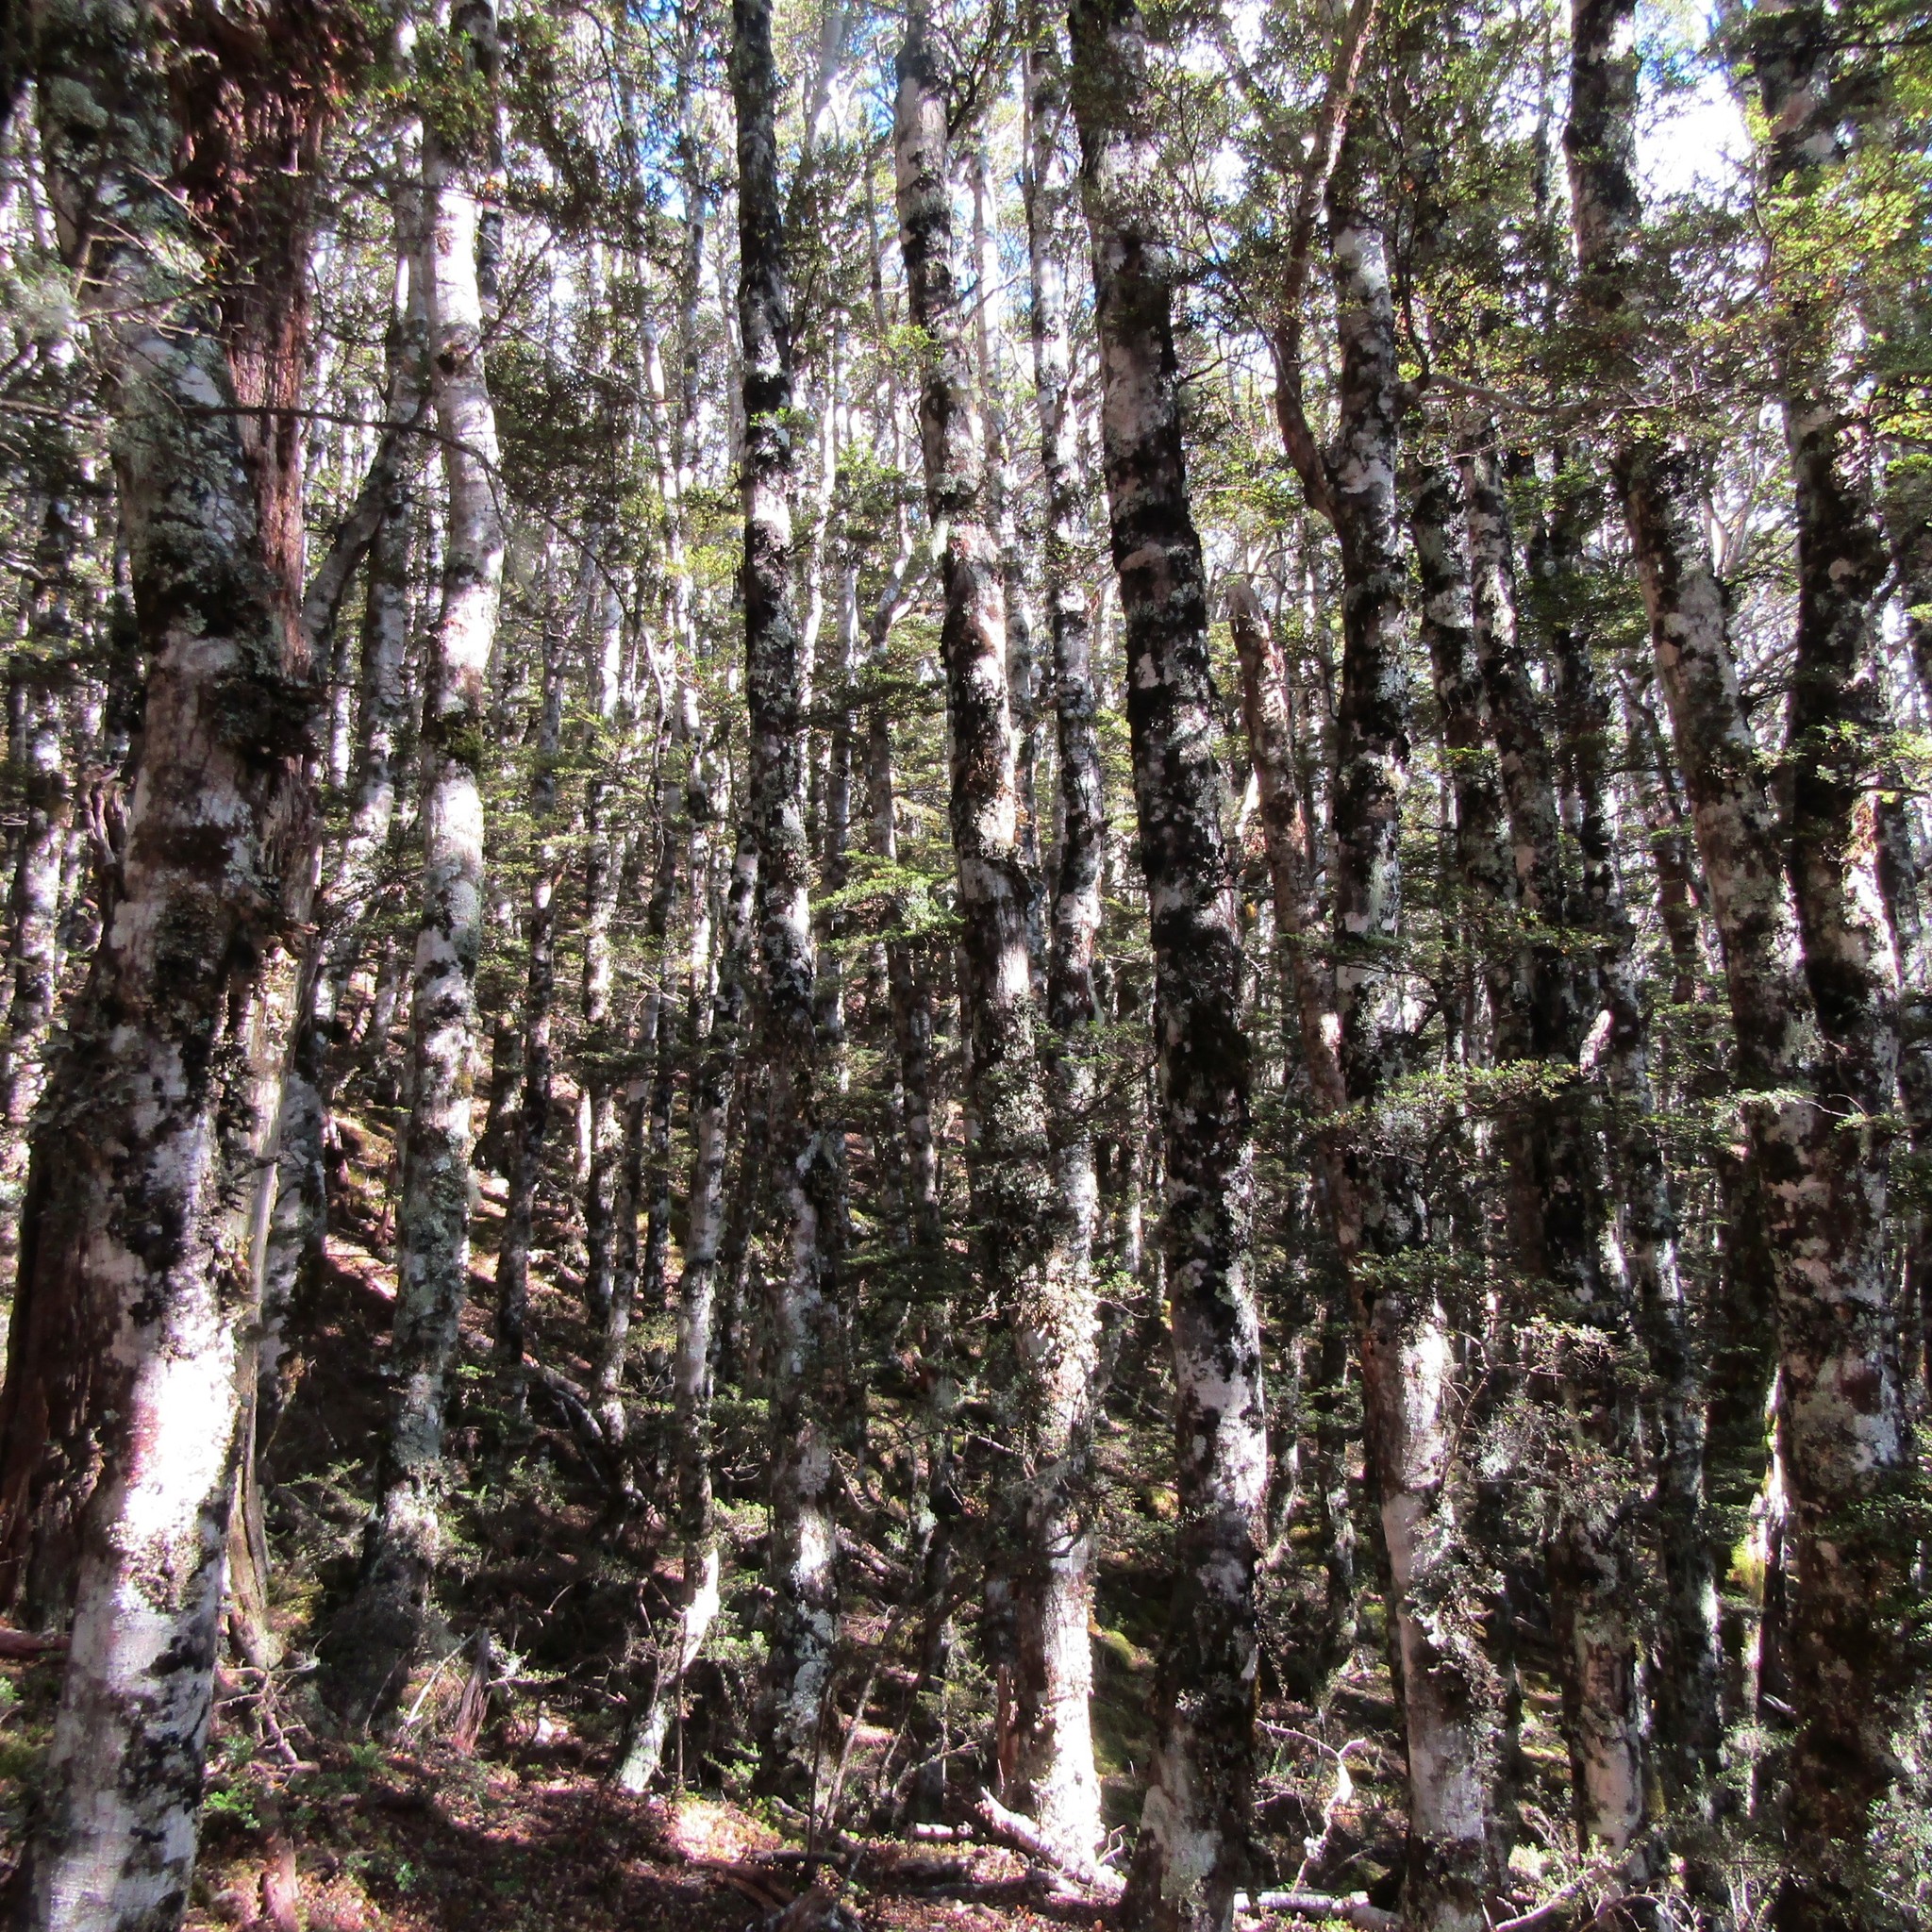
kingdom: Plantae
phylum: Tracheophyta
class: Magnoliopsida
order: Fagales
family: Nothofagaceae
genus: Nothofagus
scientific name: Nothofagus cliffortioides
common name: Mountain beech
